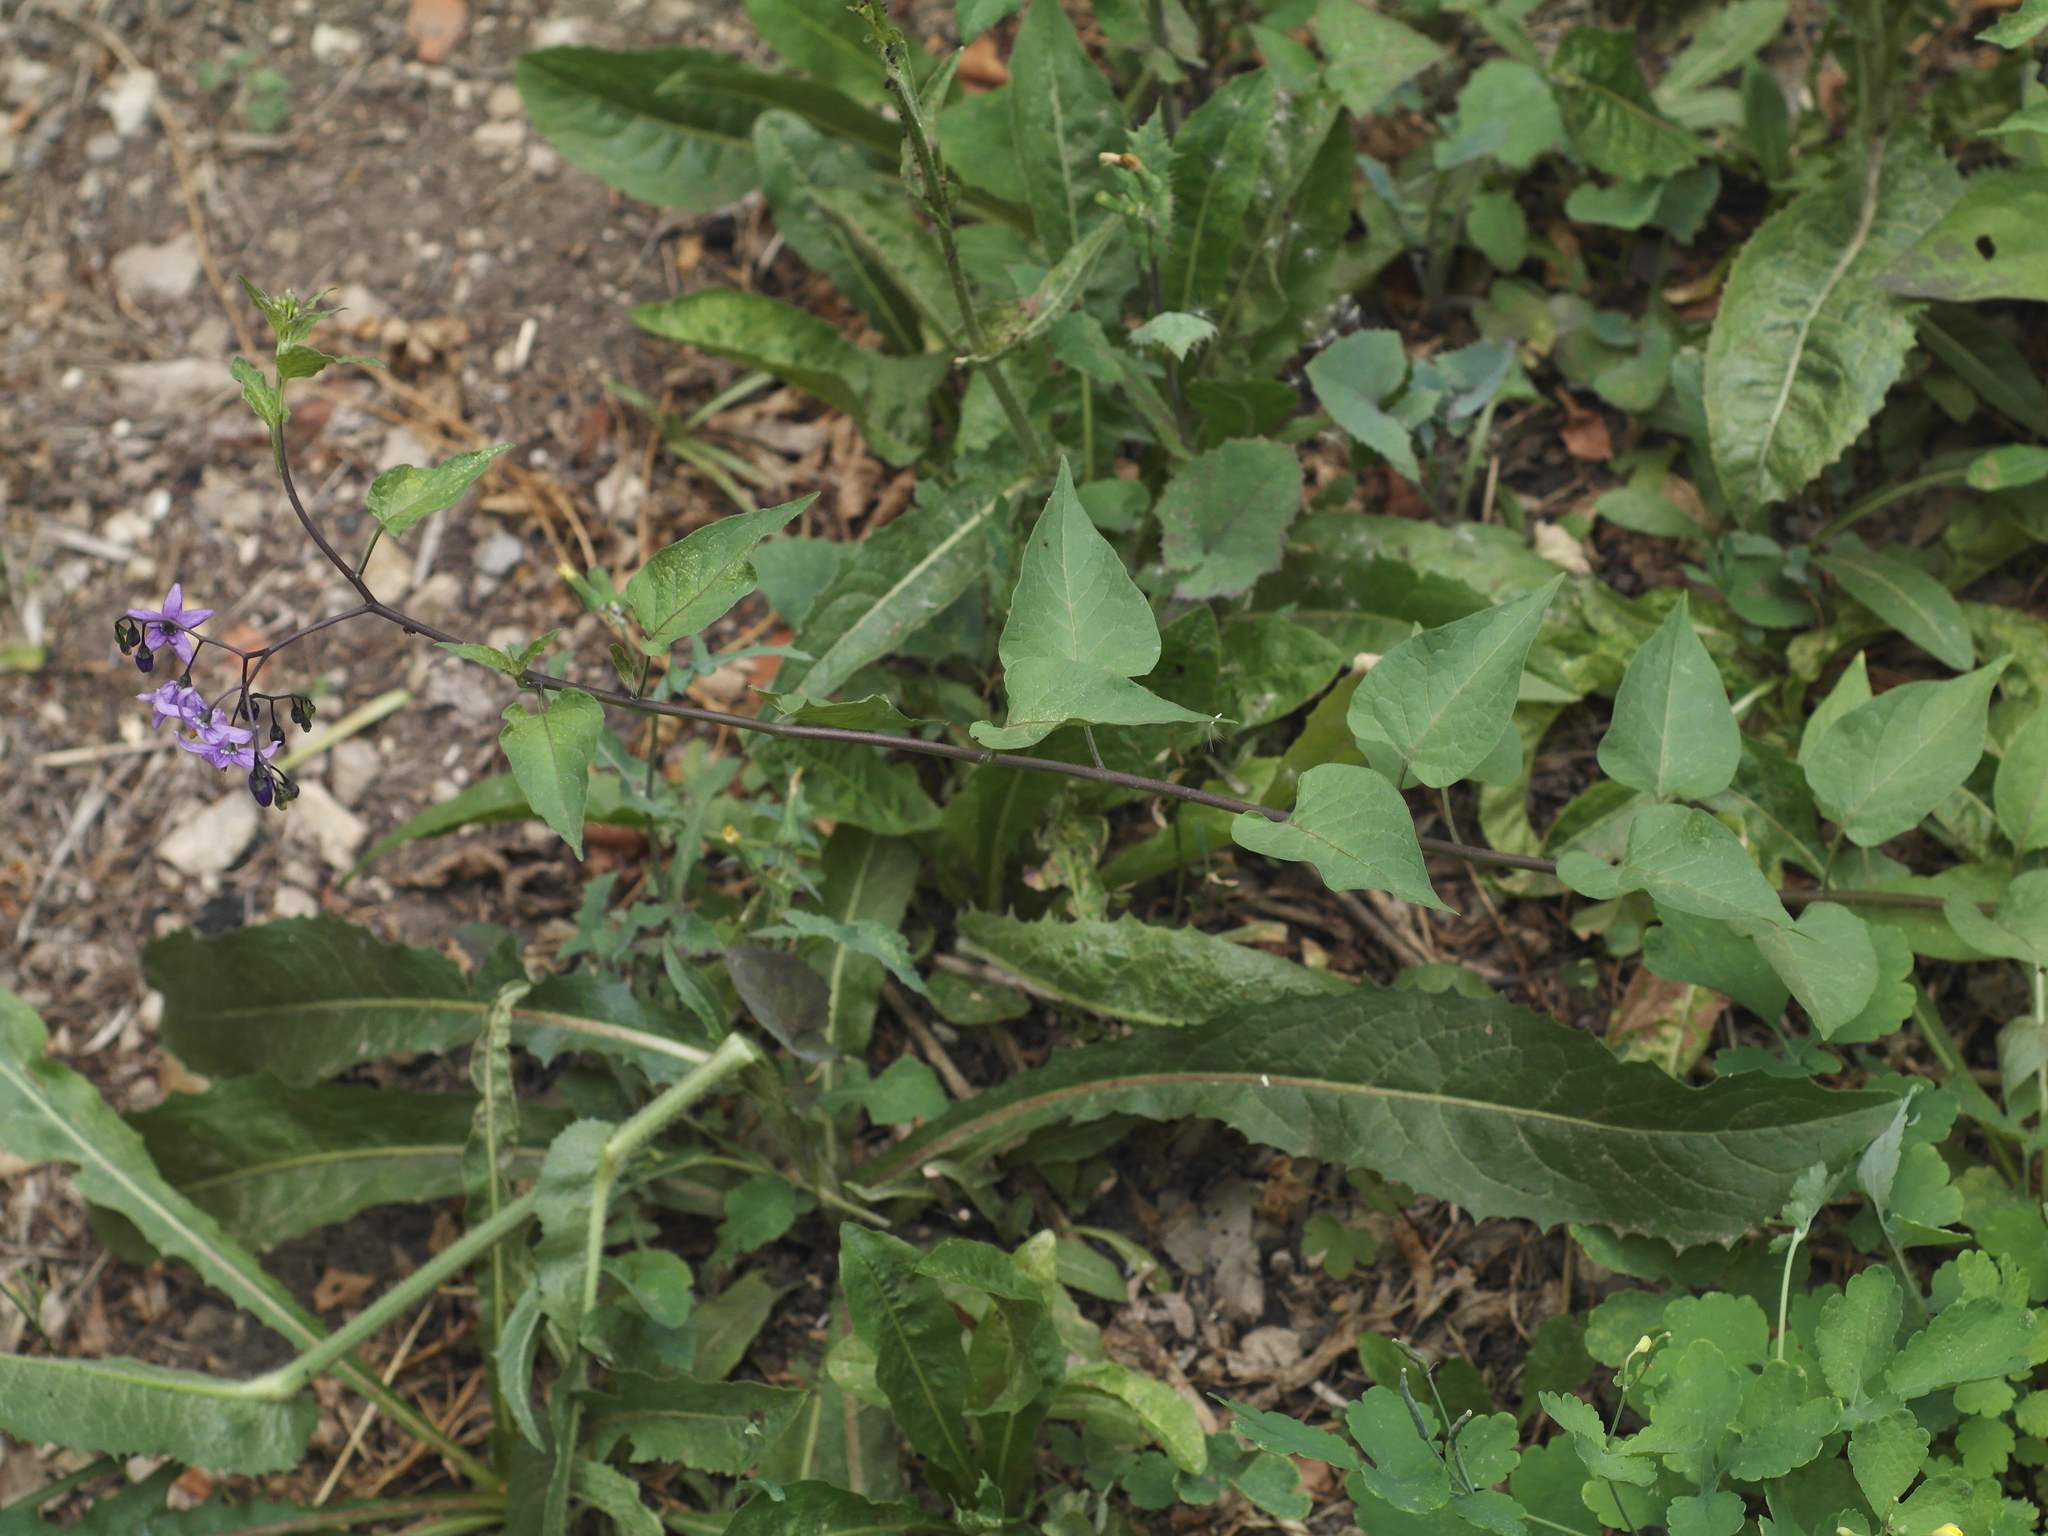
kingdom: Plantae
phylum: Tracheophyta
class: Magnoliopsida
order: Solanales
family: Solanaceae
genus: Solanum
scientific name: Solanum dulcamara
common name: Climbing nightshade
